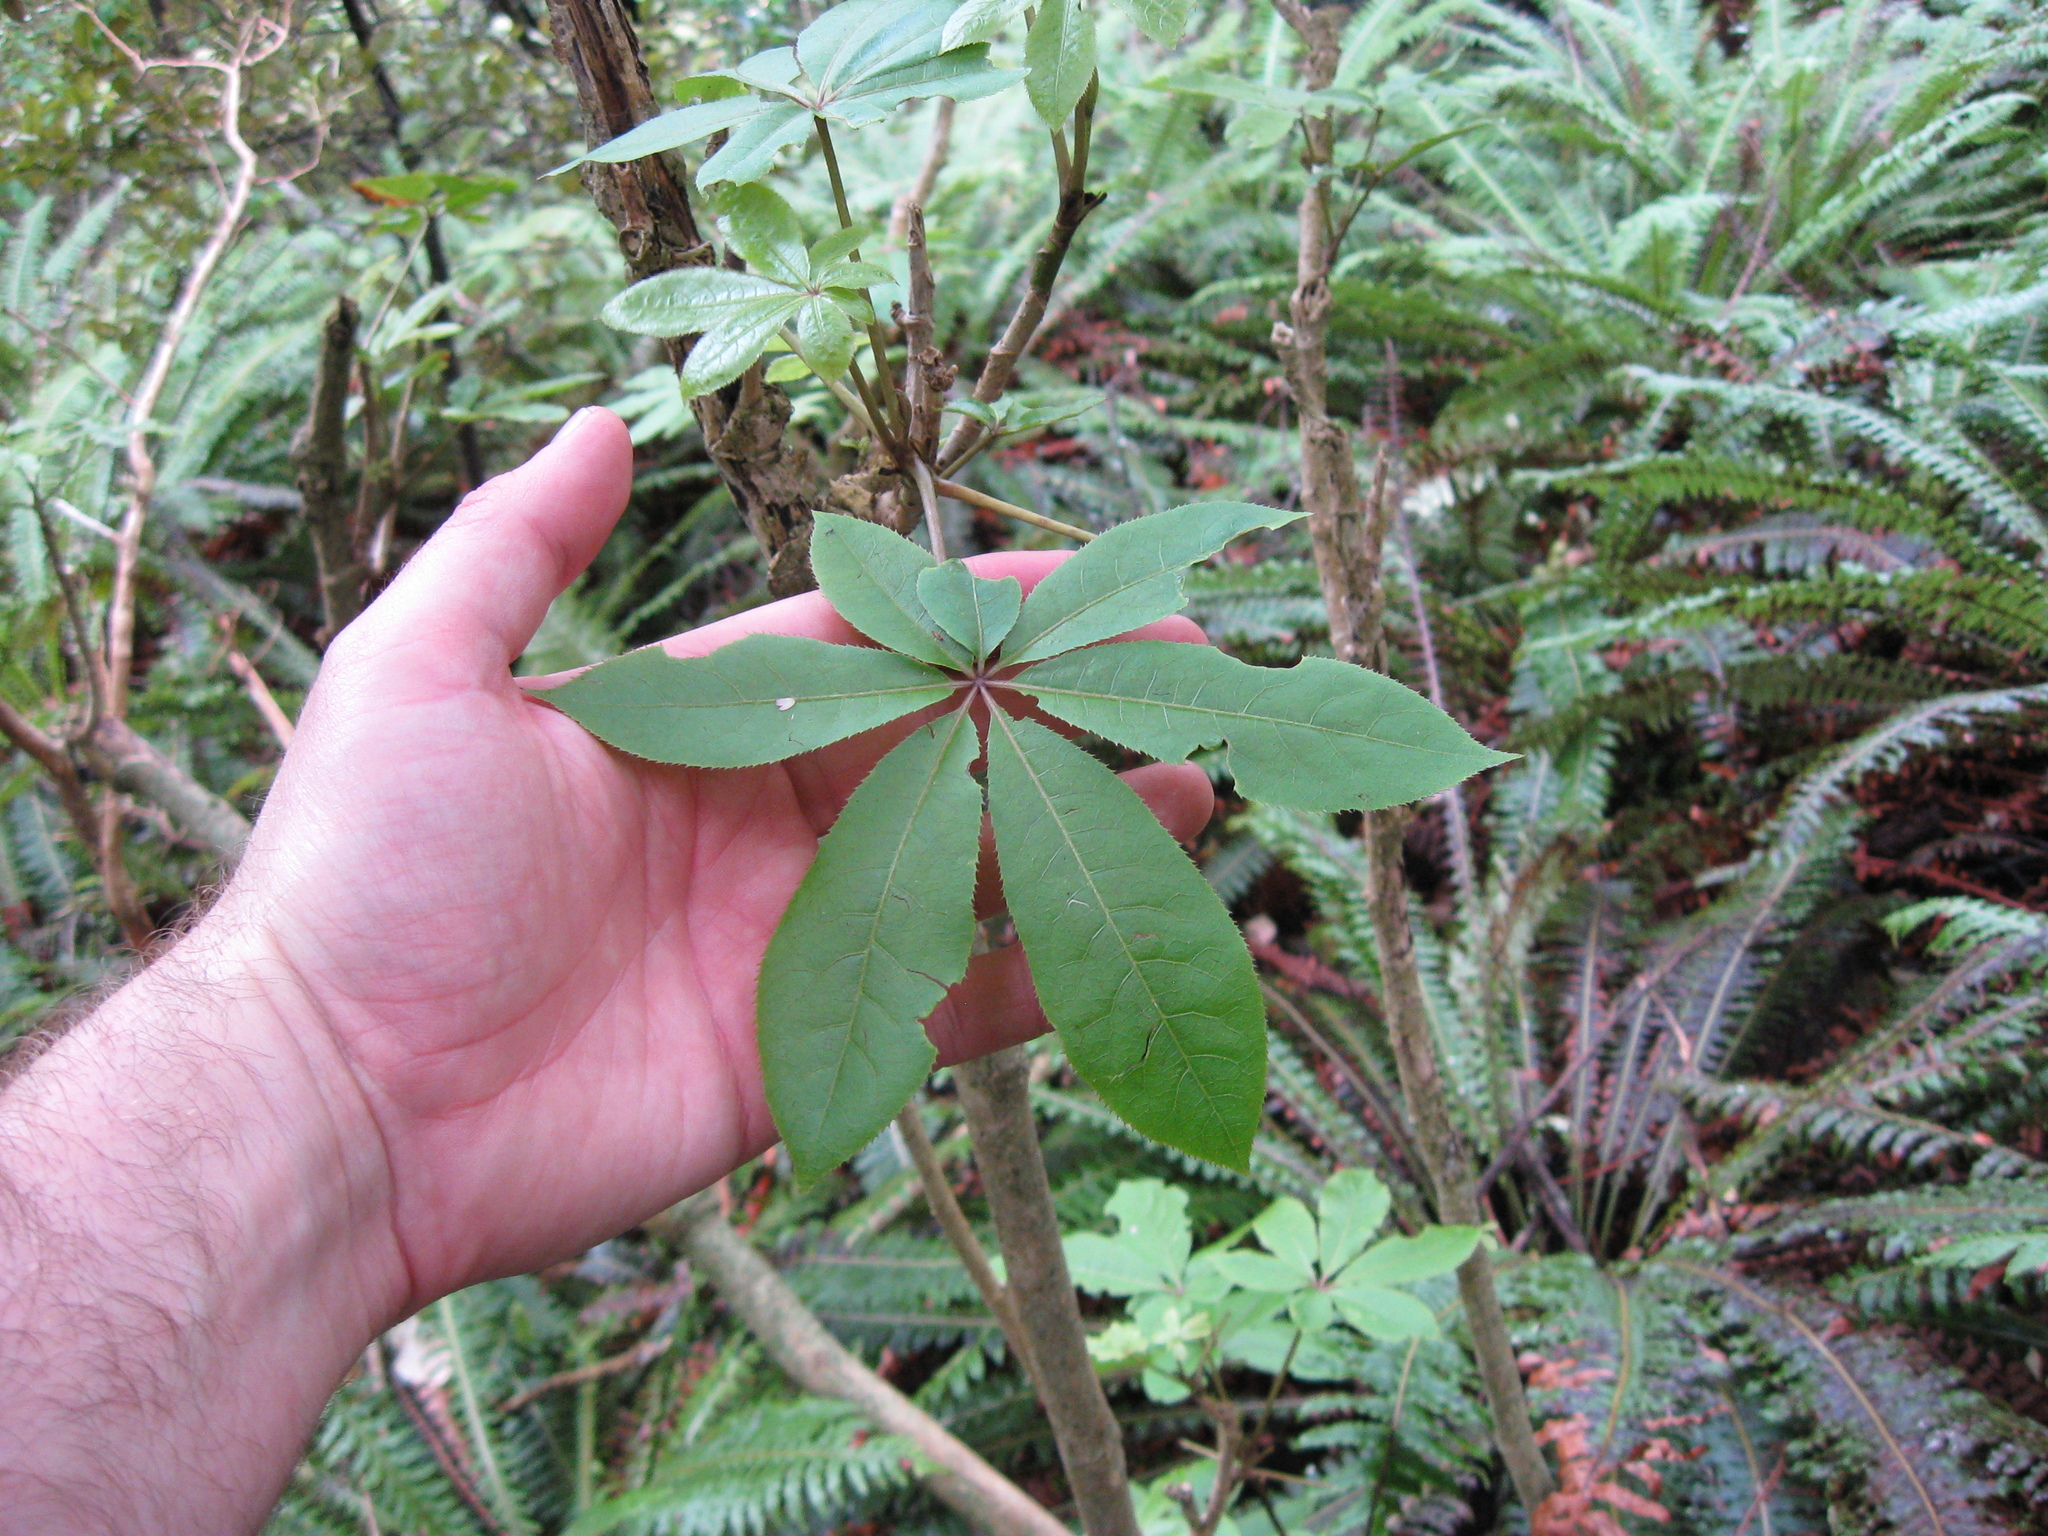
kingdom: Plantae
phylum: Tracheophyta
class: Magnoliopsida
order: Apiales
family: Araliaceae
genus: Schefflera
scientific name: Schefflera digitata
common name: Pate
